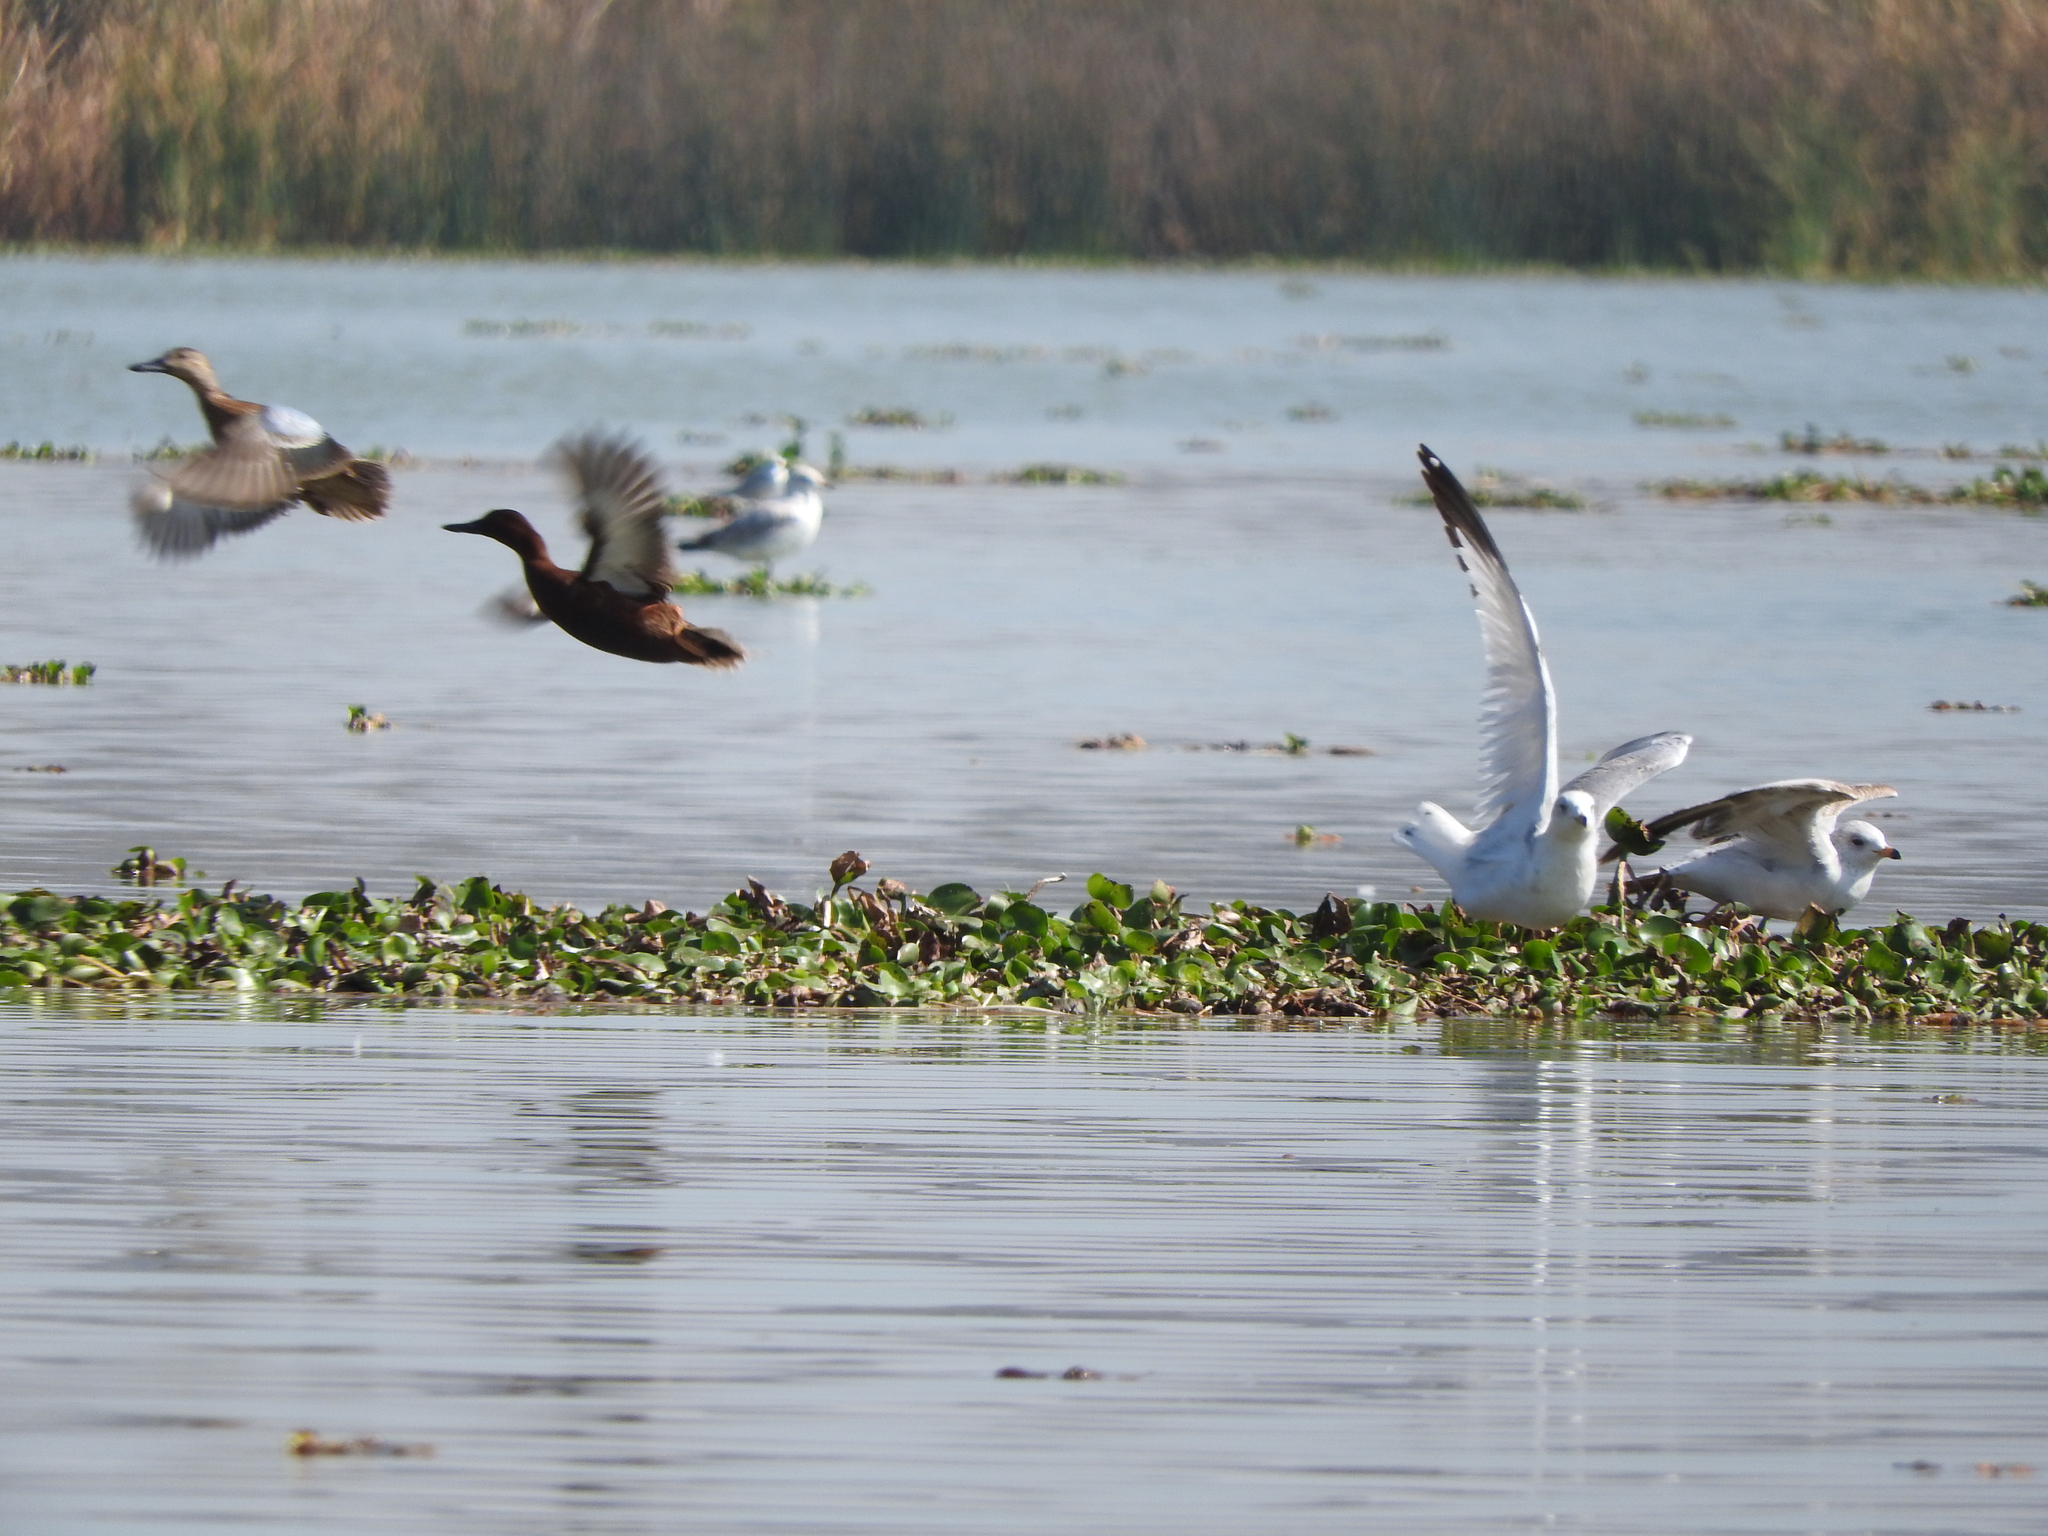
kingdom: Animalia
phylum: Chordata
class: Aves
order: Charadriiformes
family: Laridae
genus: Larus
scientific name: Larus delawarensis
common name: Ring-billed gull
